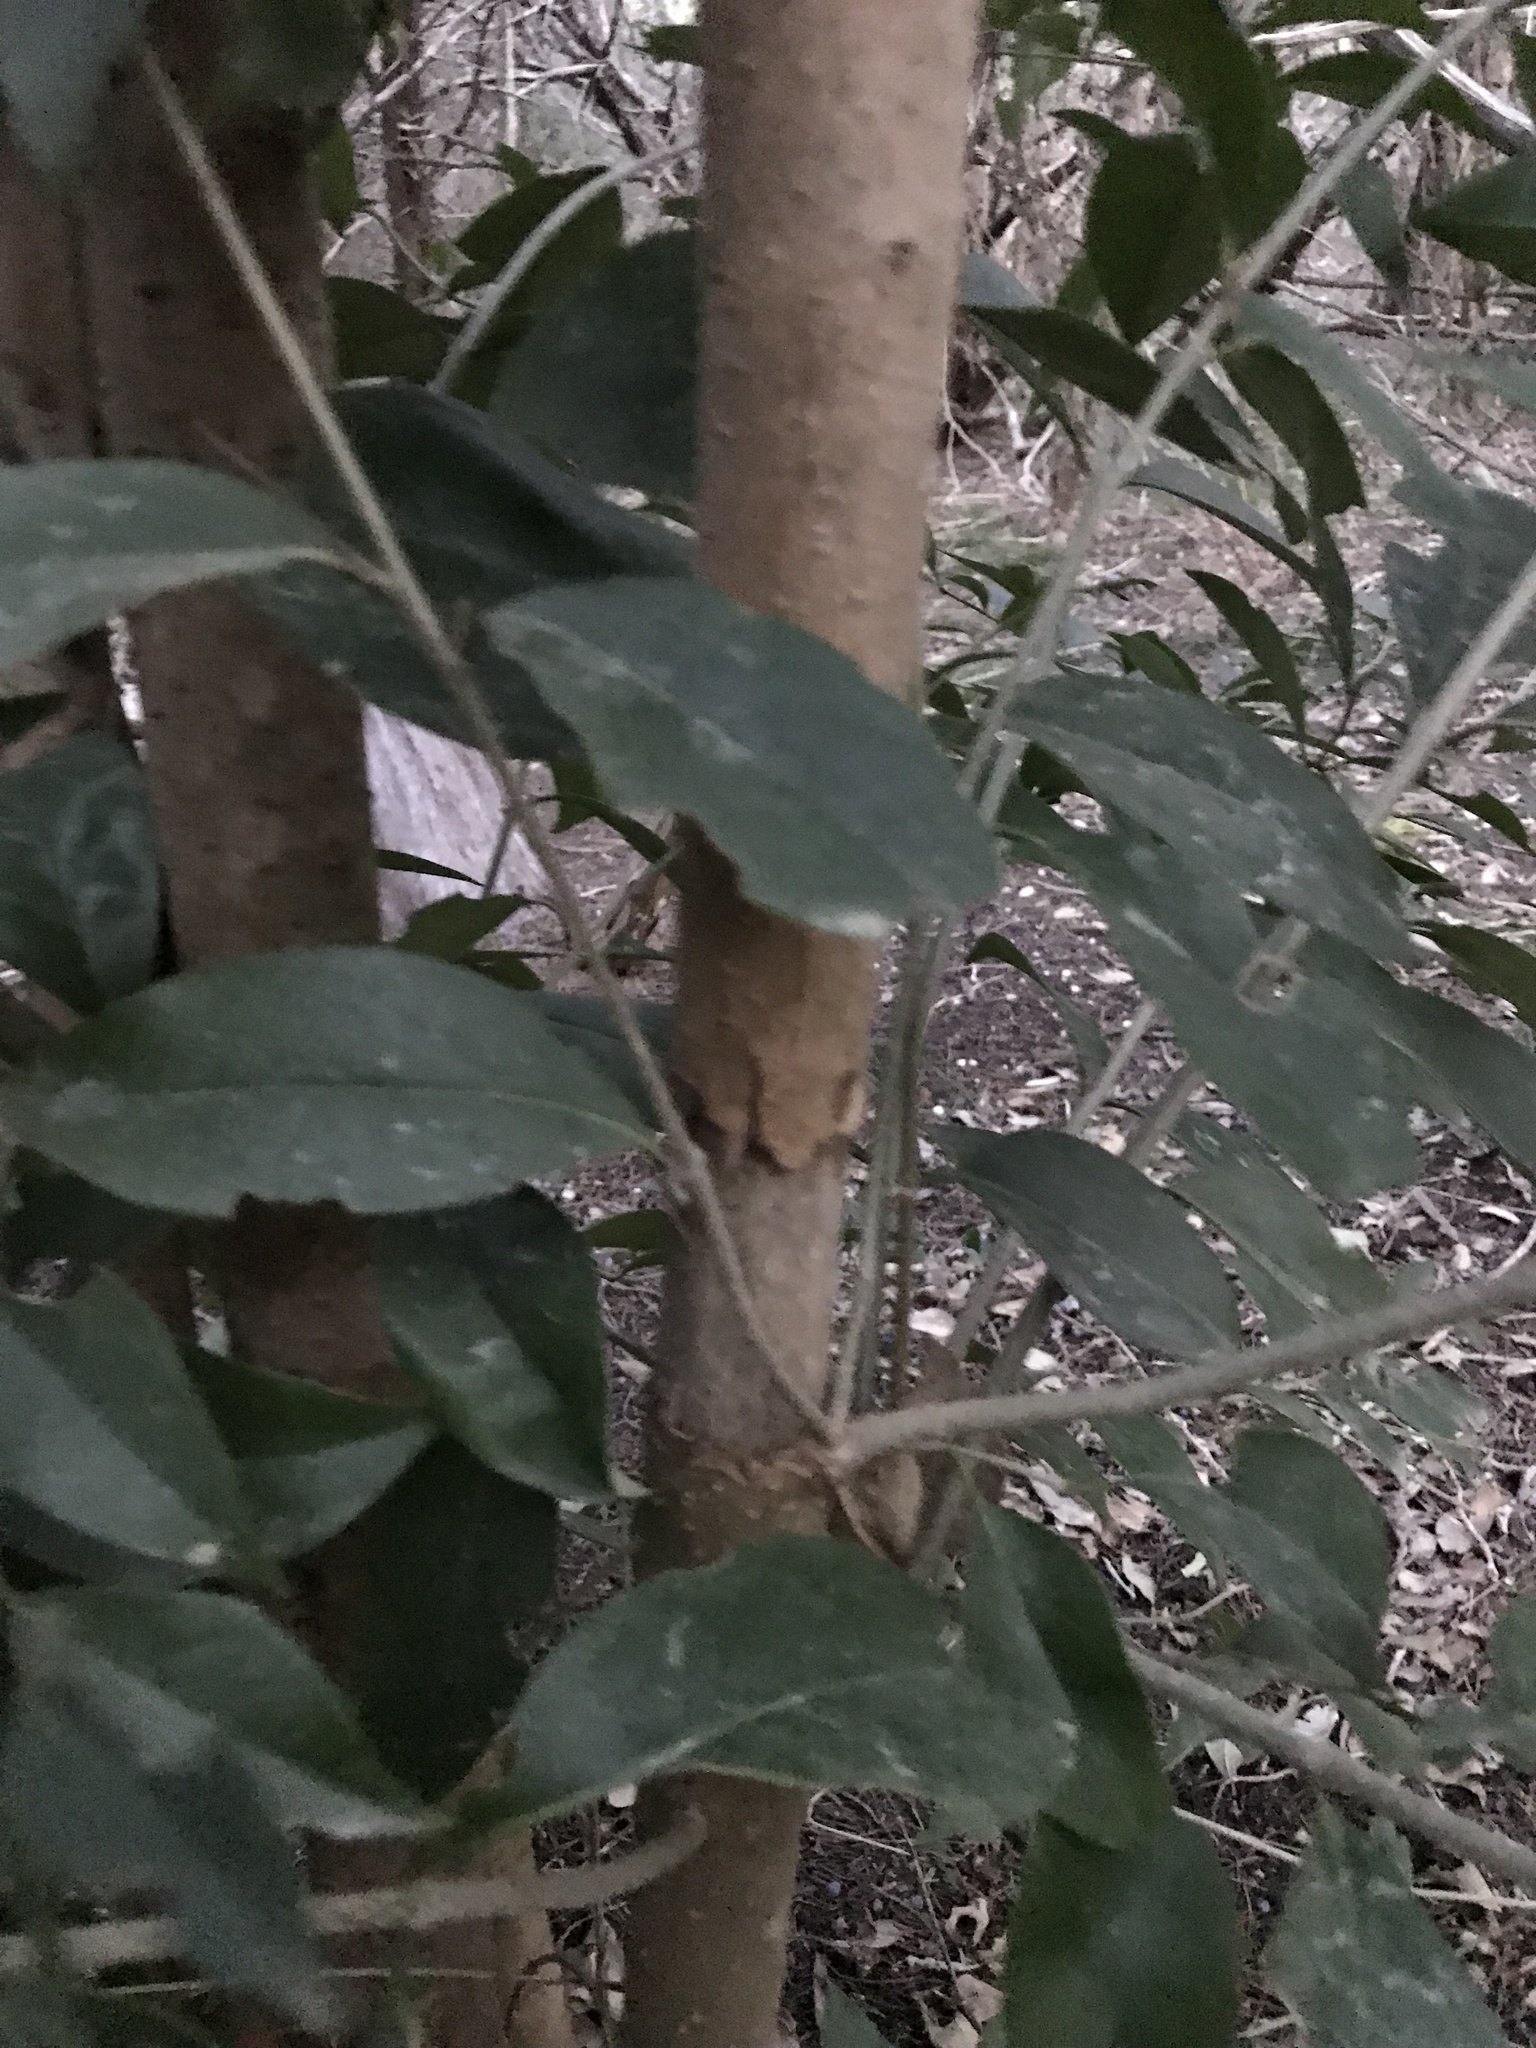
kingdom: Plantae
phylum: Tracheophyta
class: Magnoliopsida
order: Lamiales
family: Oleaceae
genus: Ligustrum
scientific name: Ligustrum lucidum
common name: Glossy privet
